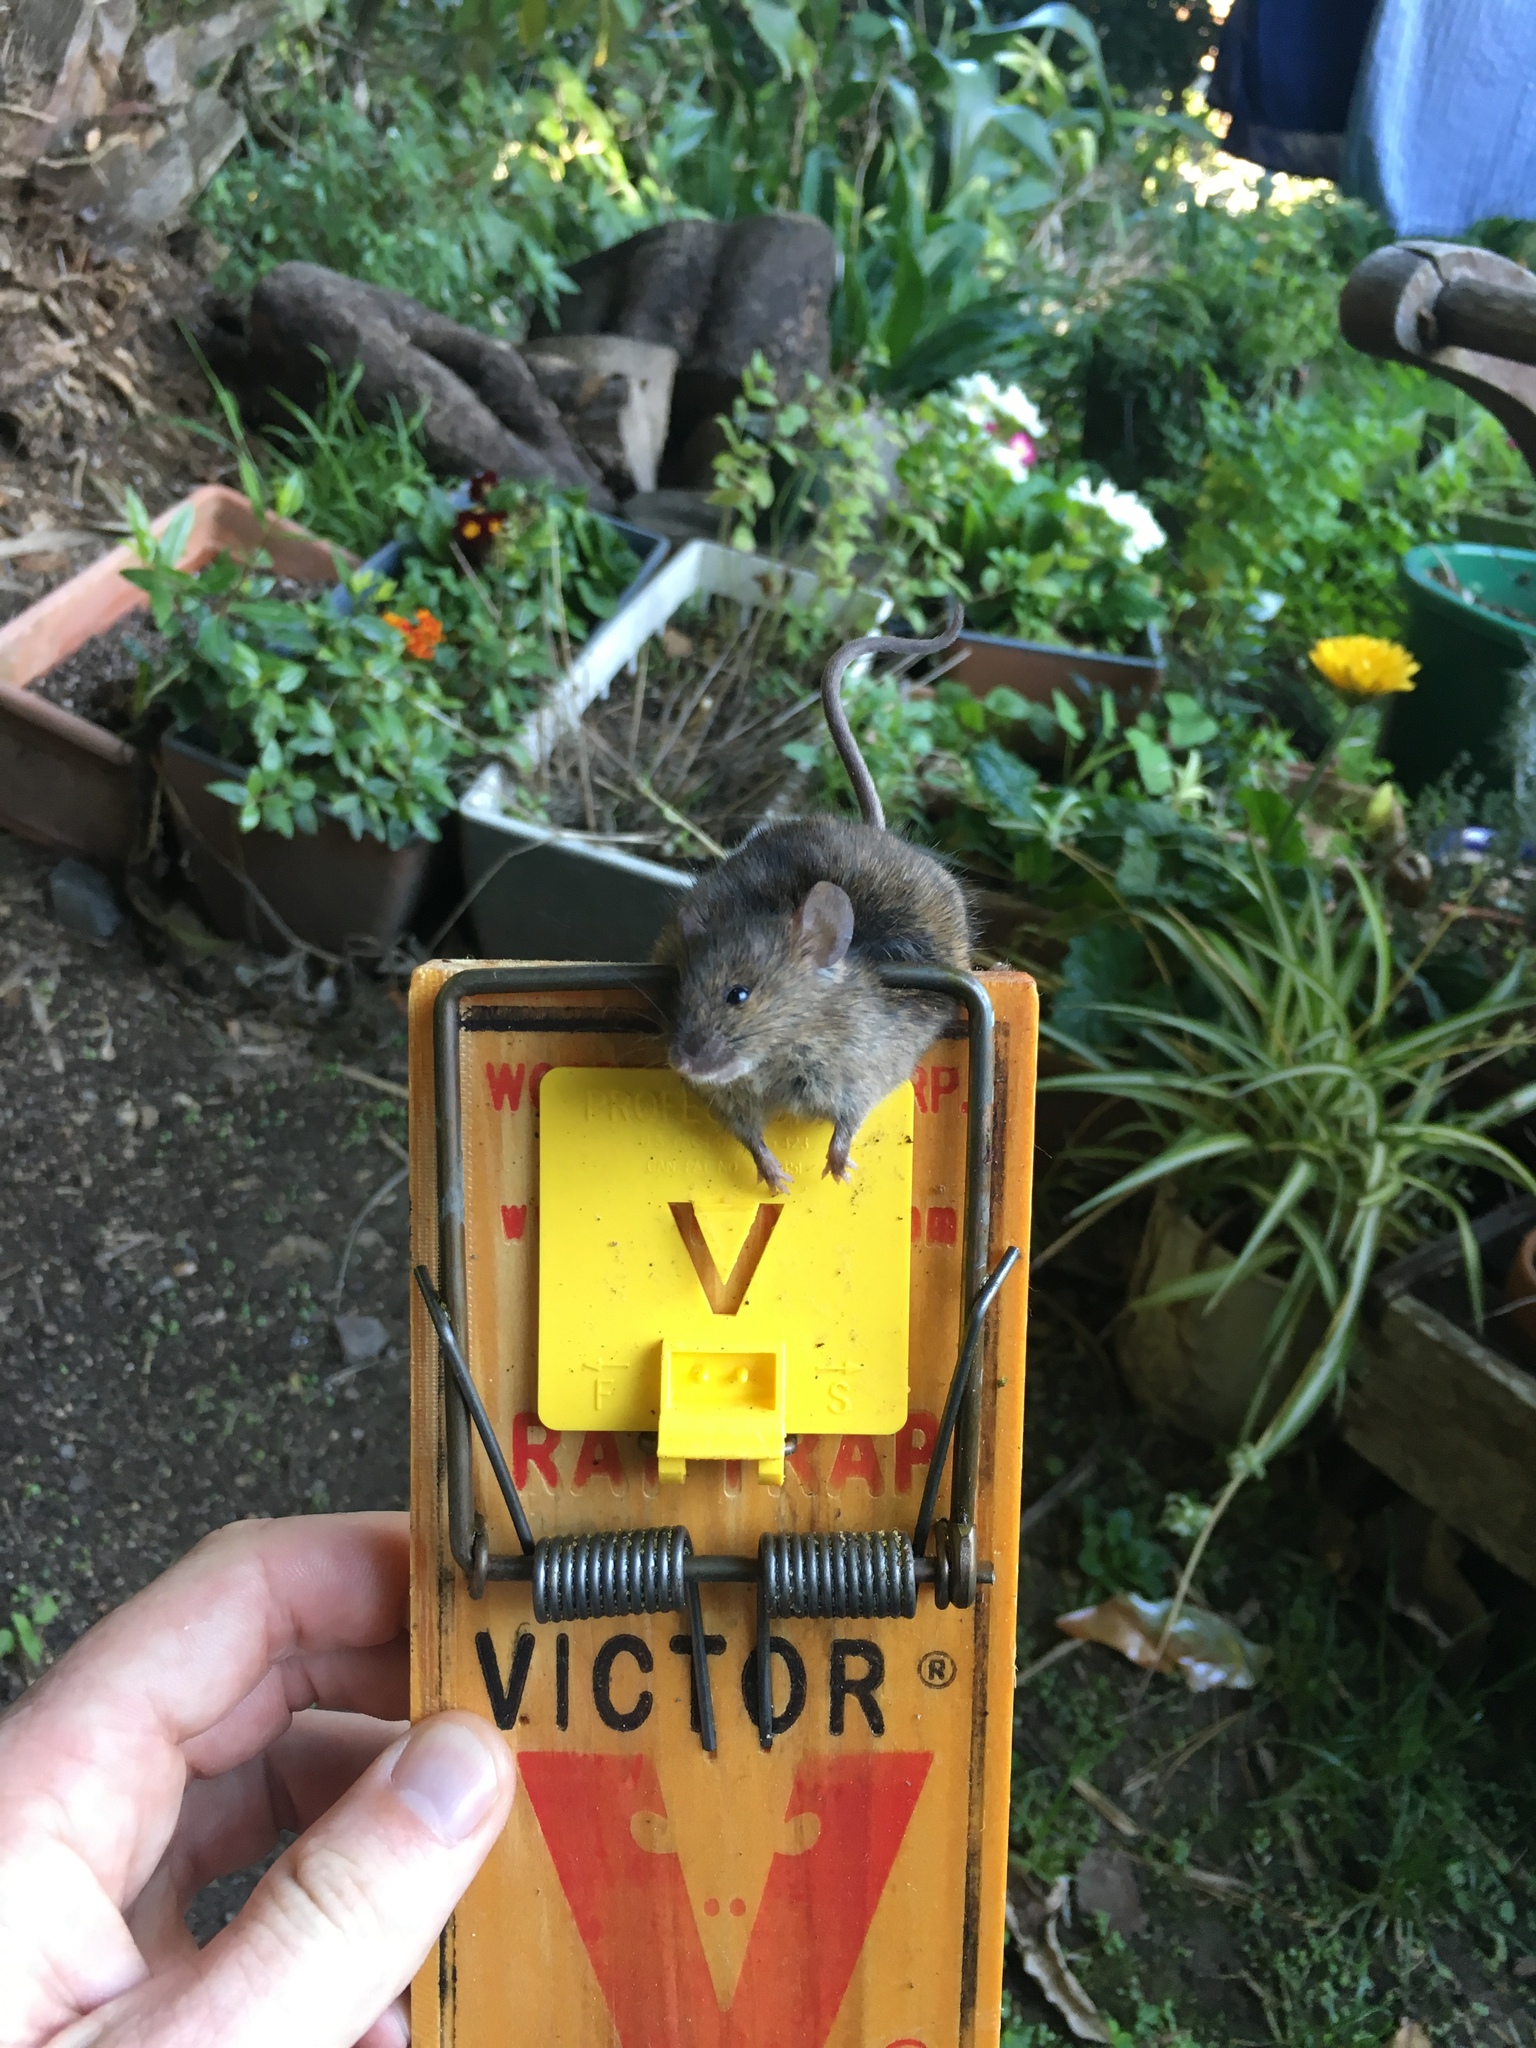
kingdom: Animalia
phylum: Chordata
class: Mammalia
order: Rodentia
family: Muridae
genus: Mus
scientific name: Mus musculus
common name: House mouse
